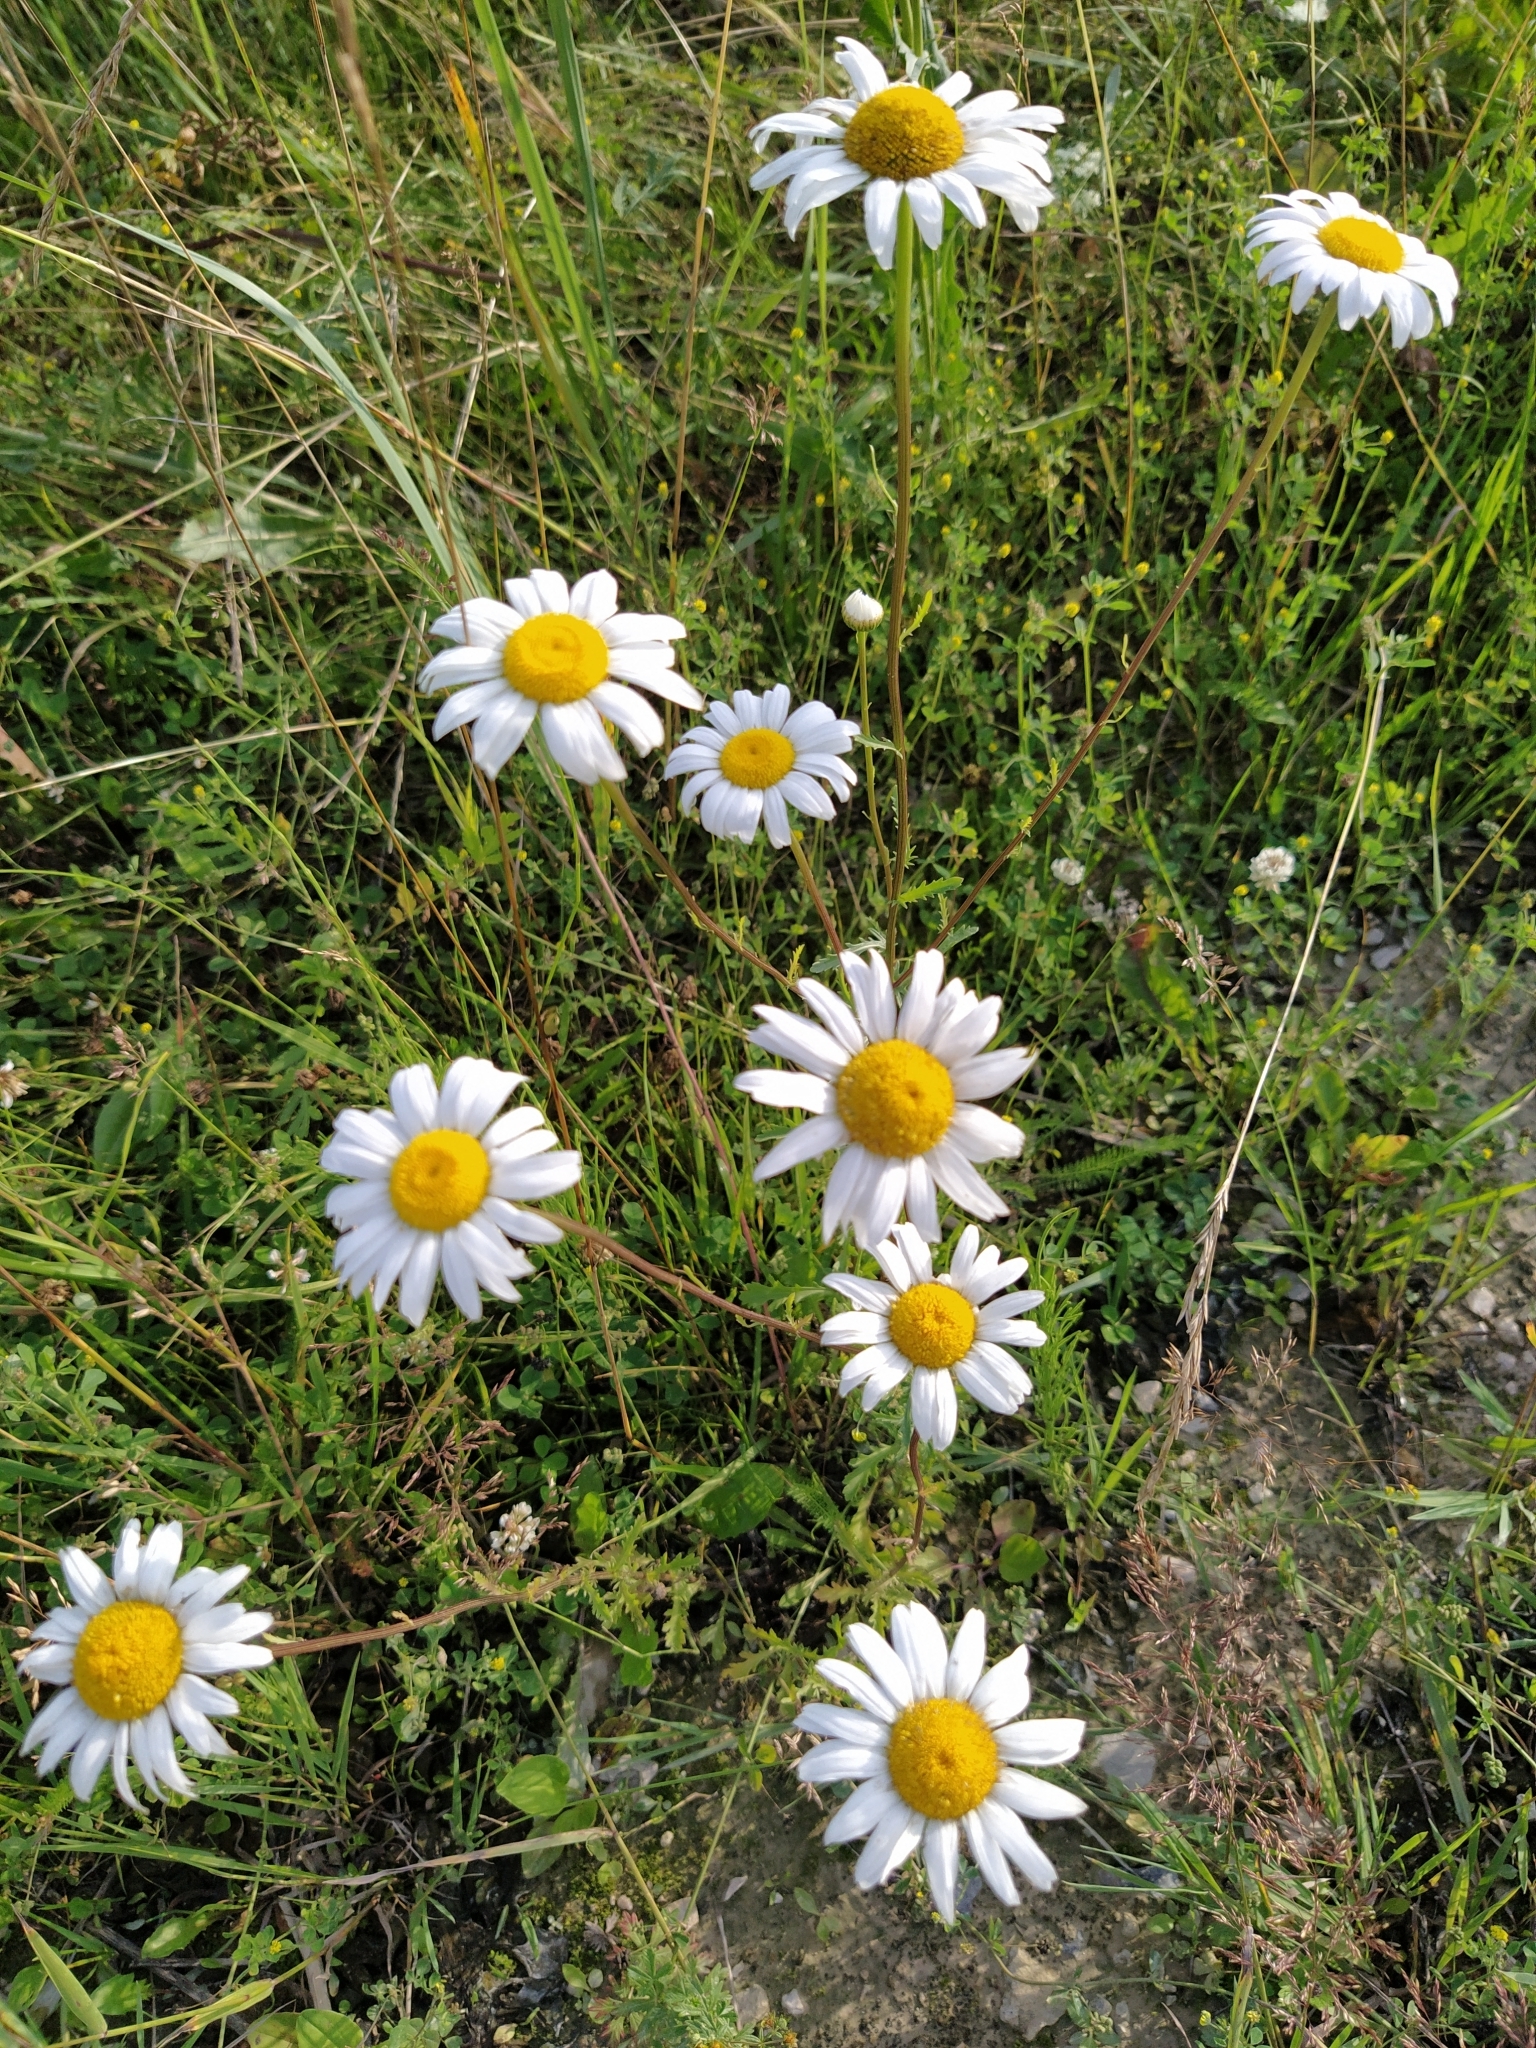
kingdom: Plantae
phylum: Tracheophyta
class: Magnoliopsida
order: Asterales
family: Asteraceae
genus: Leucanthemum
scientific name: Leucanthemum vulgare
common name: Oxeye daisy
